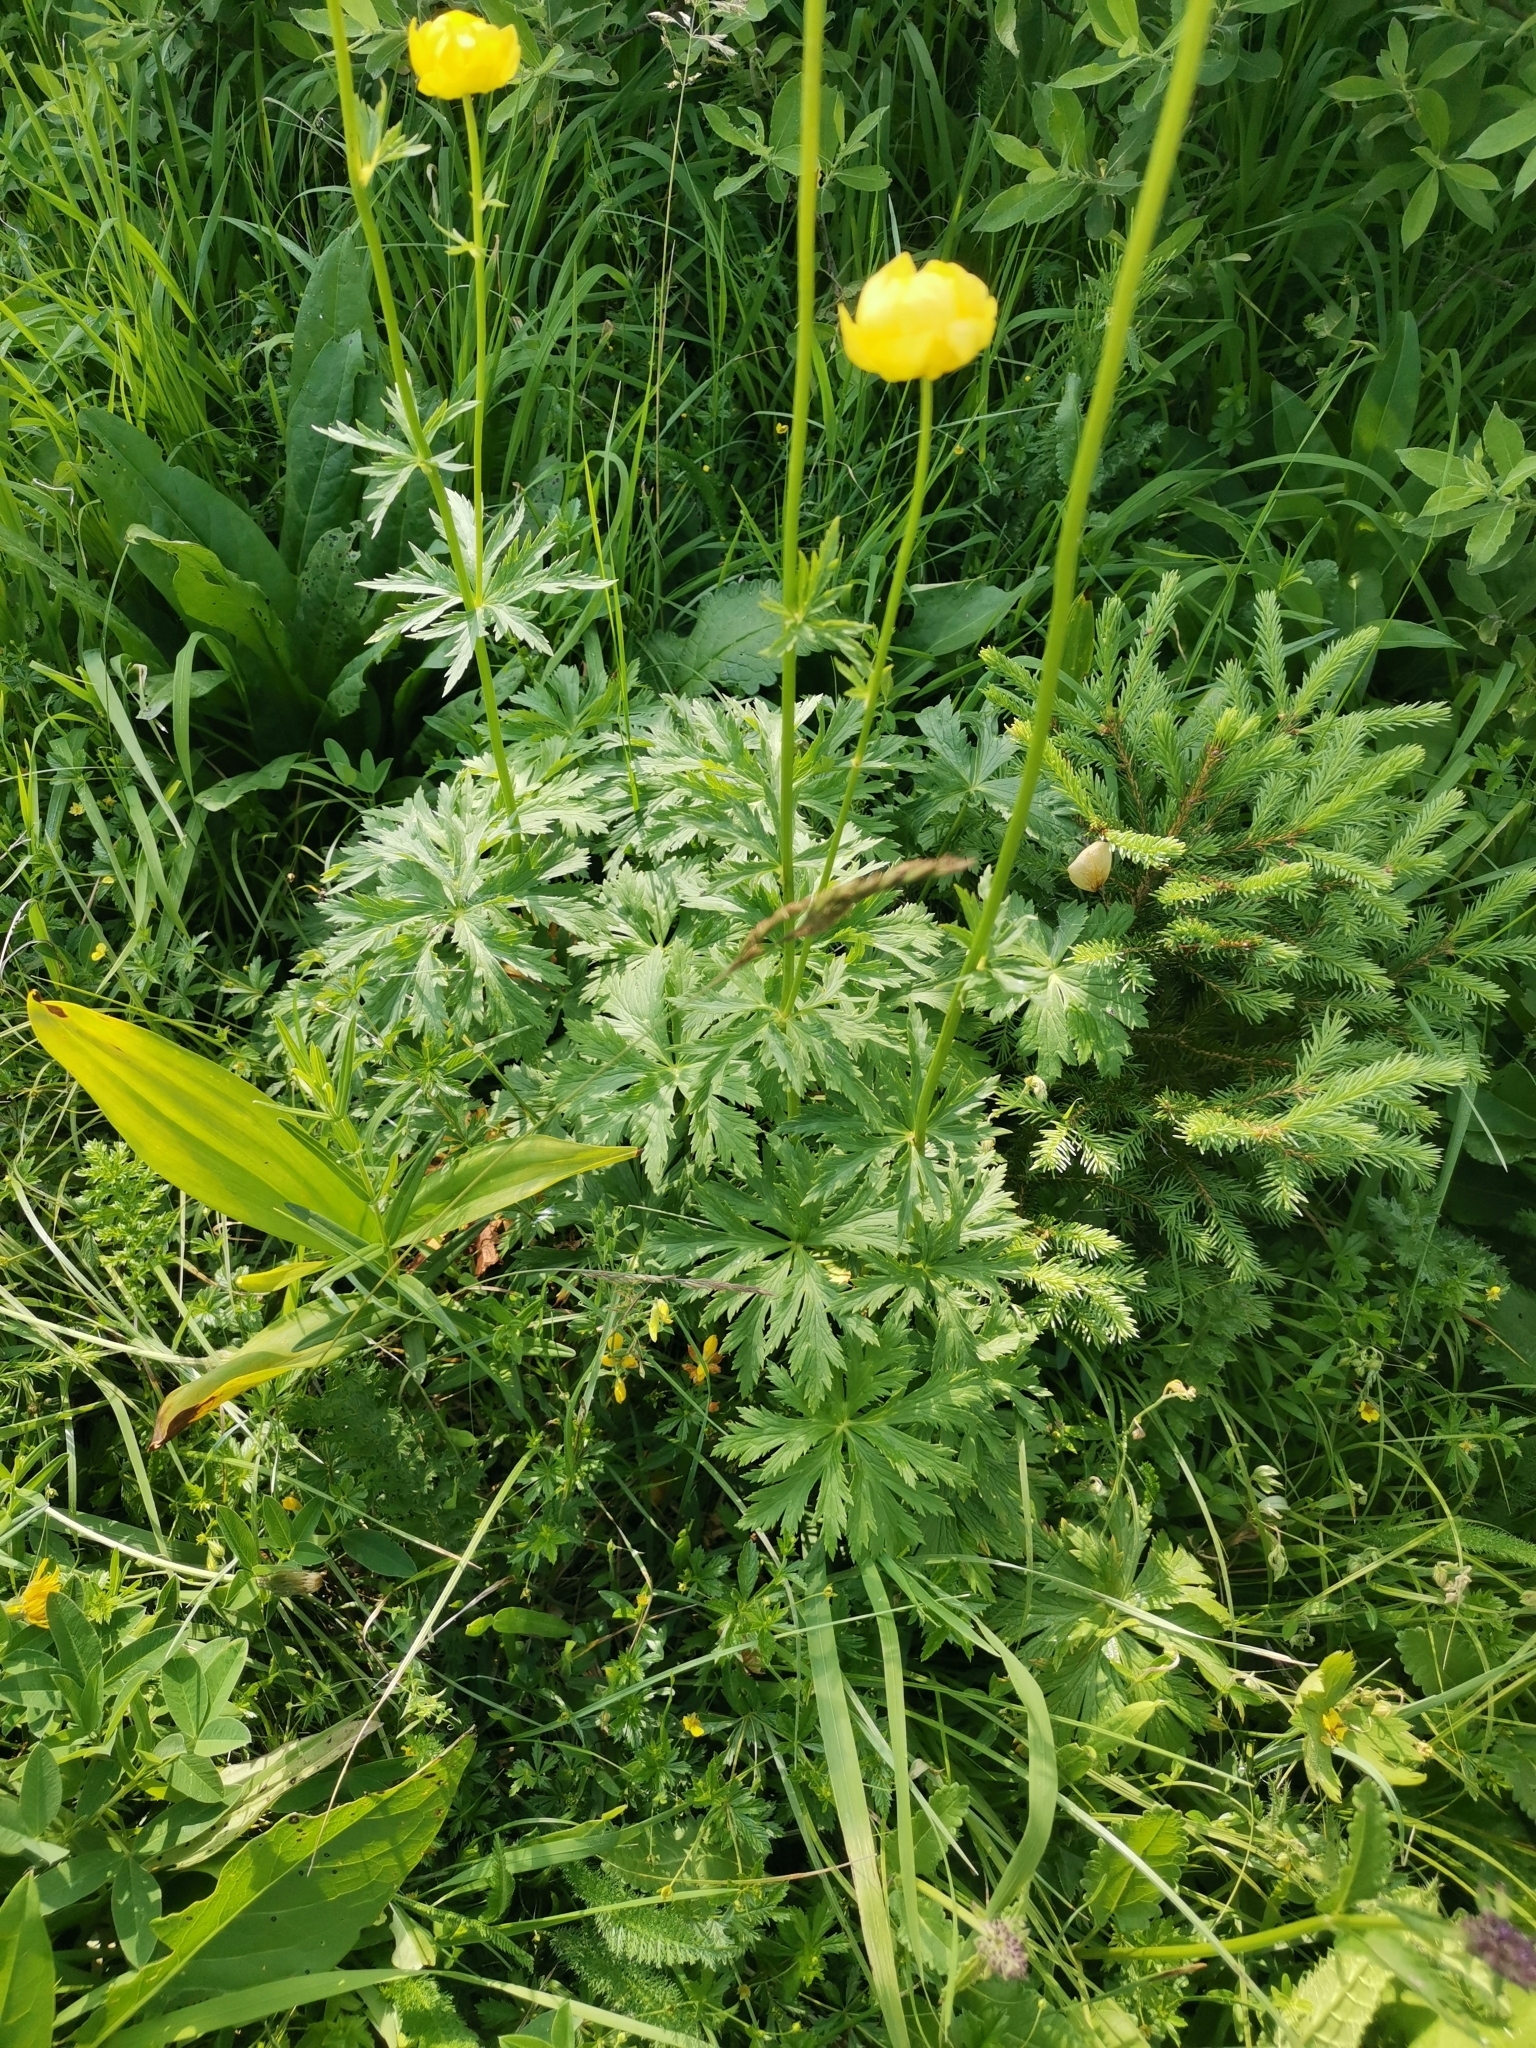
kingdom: Plantae
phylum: Tracheophyta
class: Magnoliopsida
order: Ranunculales
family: Ranunculaceae
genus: Trollius
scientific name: Trollius europaeus
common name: European globeflower
